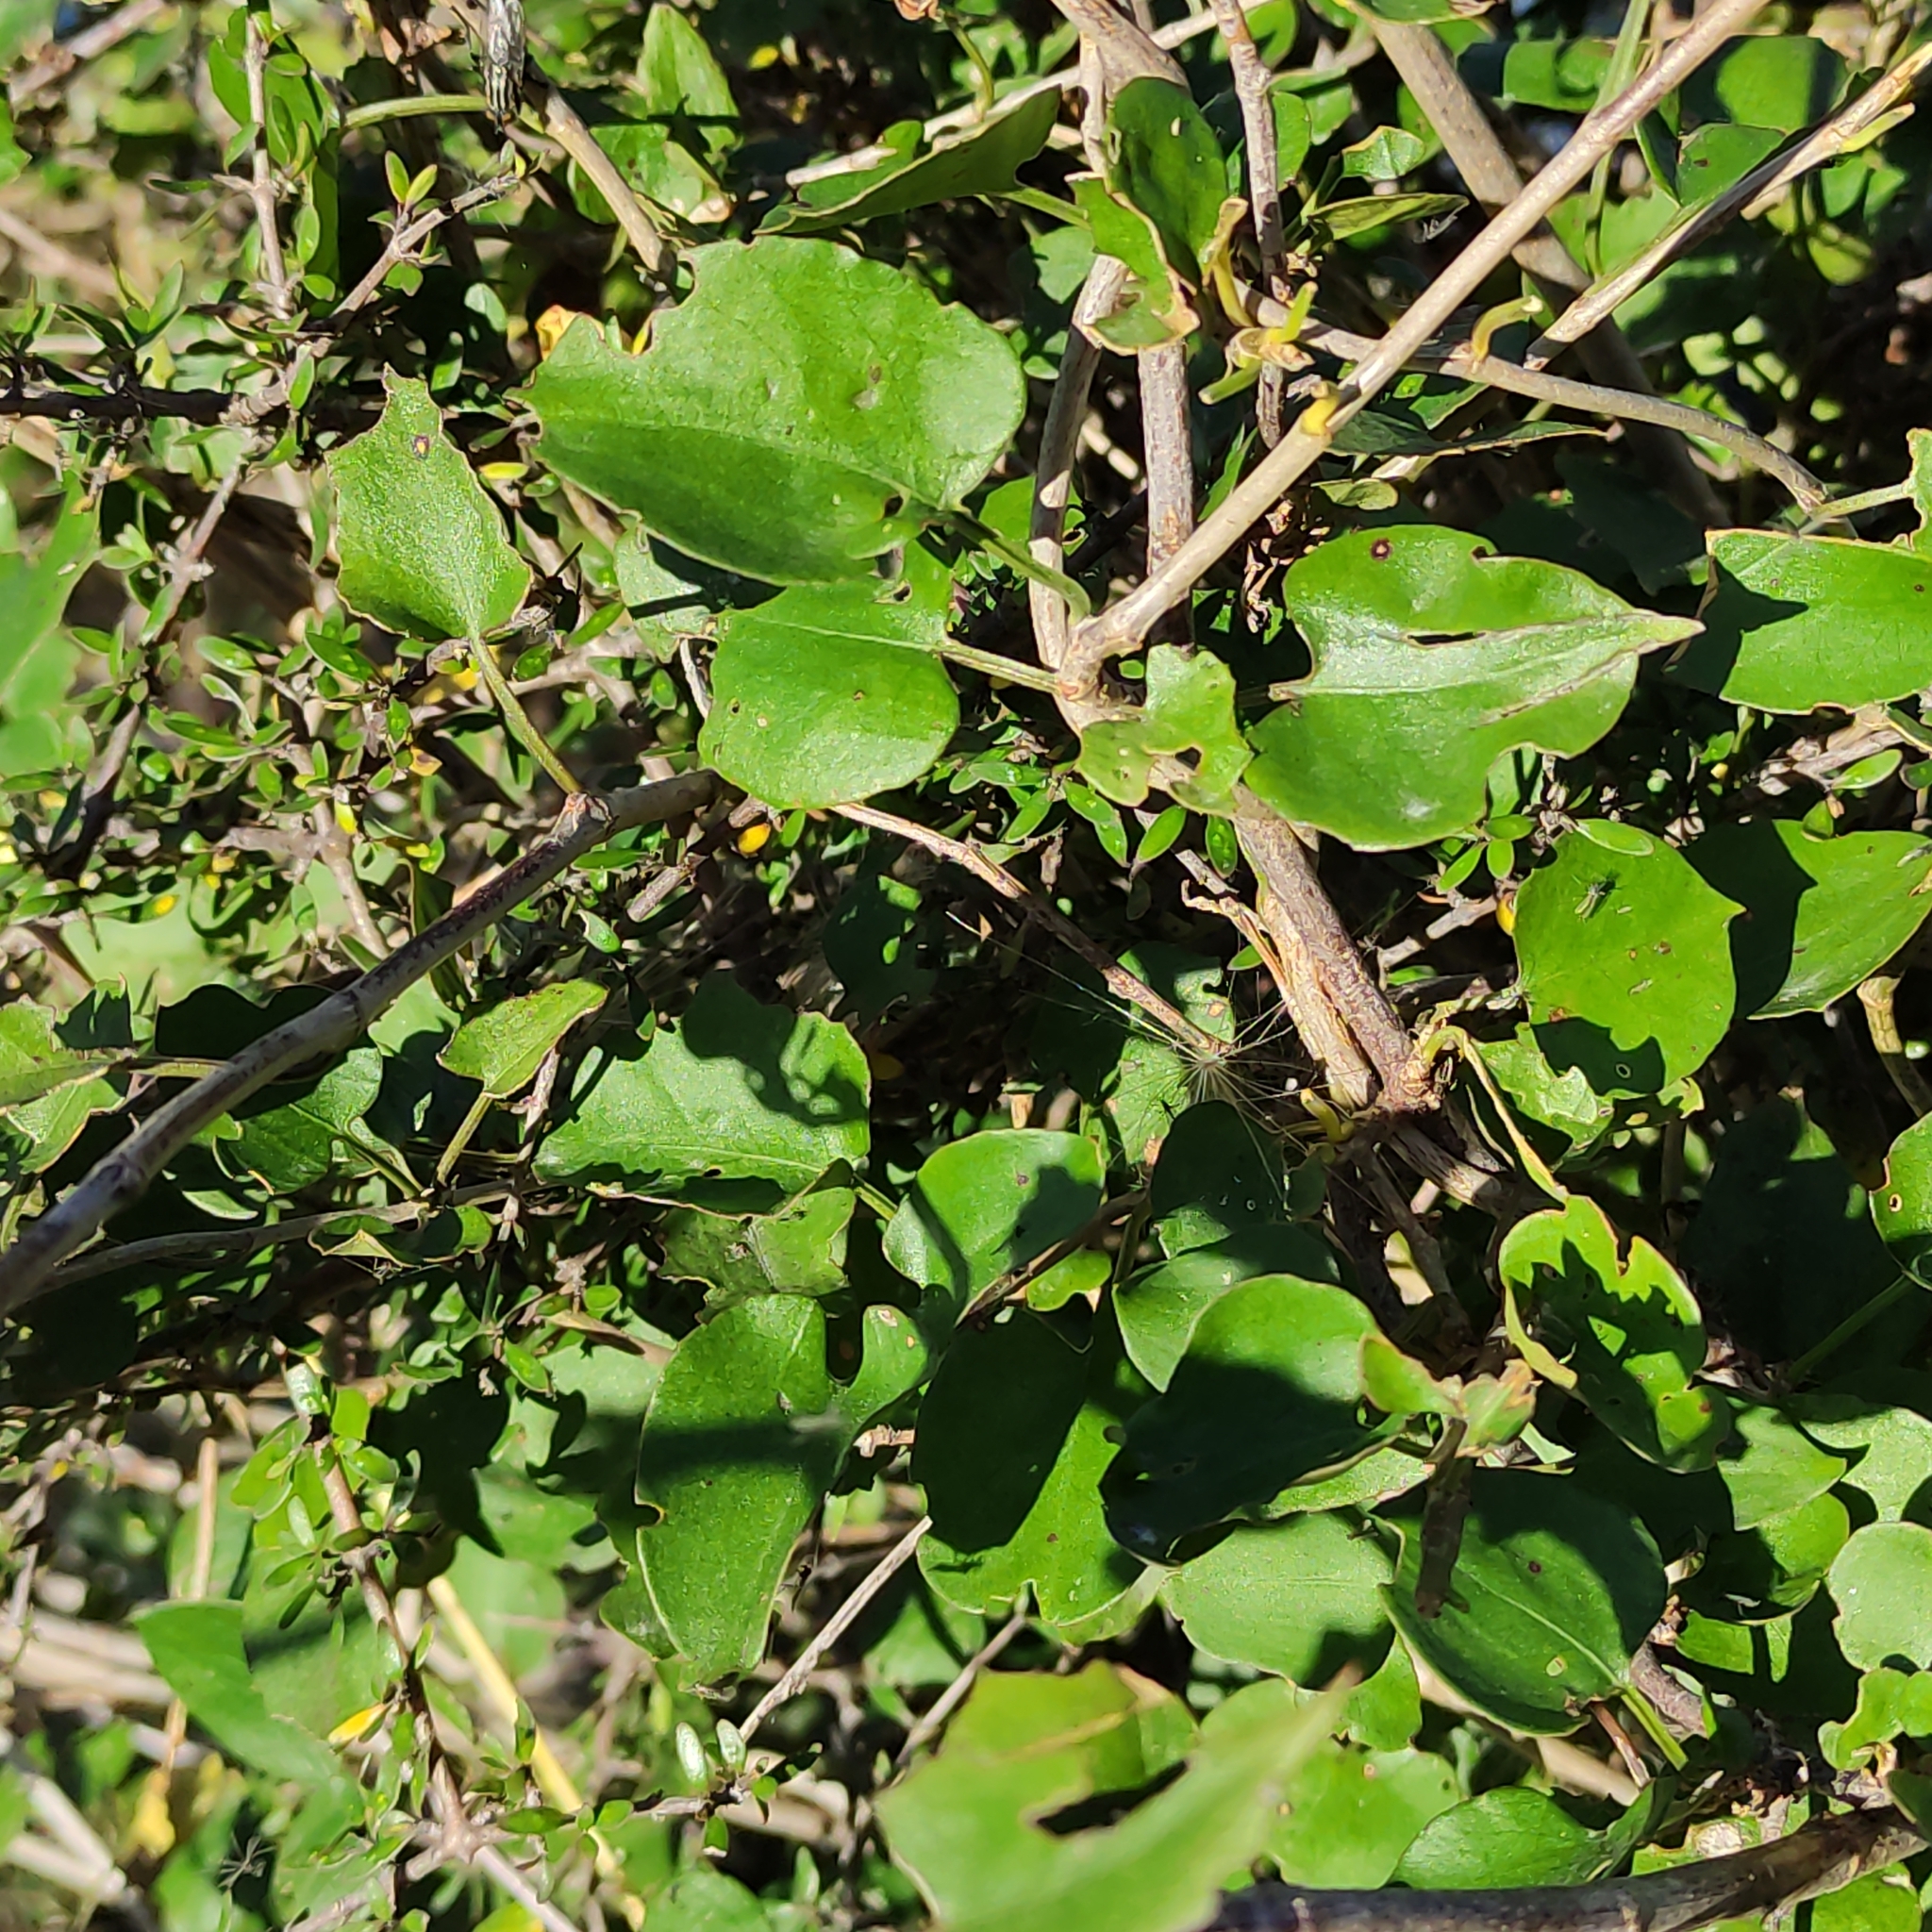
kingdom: Plantae
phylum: Tracheophyta
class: Magnoliopsida
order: Caryophyllales
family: Polygonaceae
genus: Muehlenbeckia
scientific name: Muehlenbeckia australis
